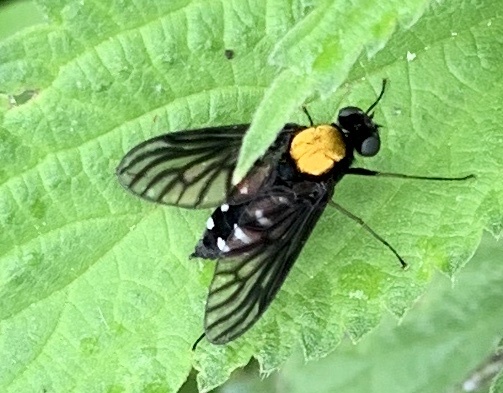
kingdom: Animalia
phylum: Arthropoda
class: Insecta
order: Diptera
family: Rhagionidae
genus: Chrysopilus
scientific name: Chrysopilus thoracicus
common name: Golden-backed snipe fly
